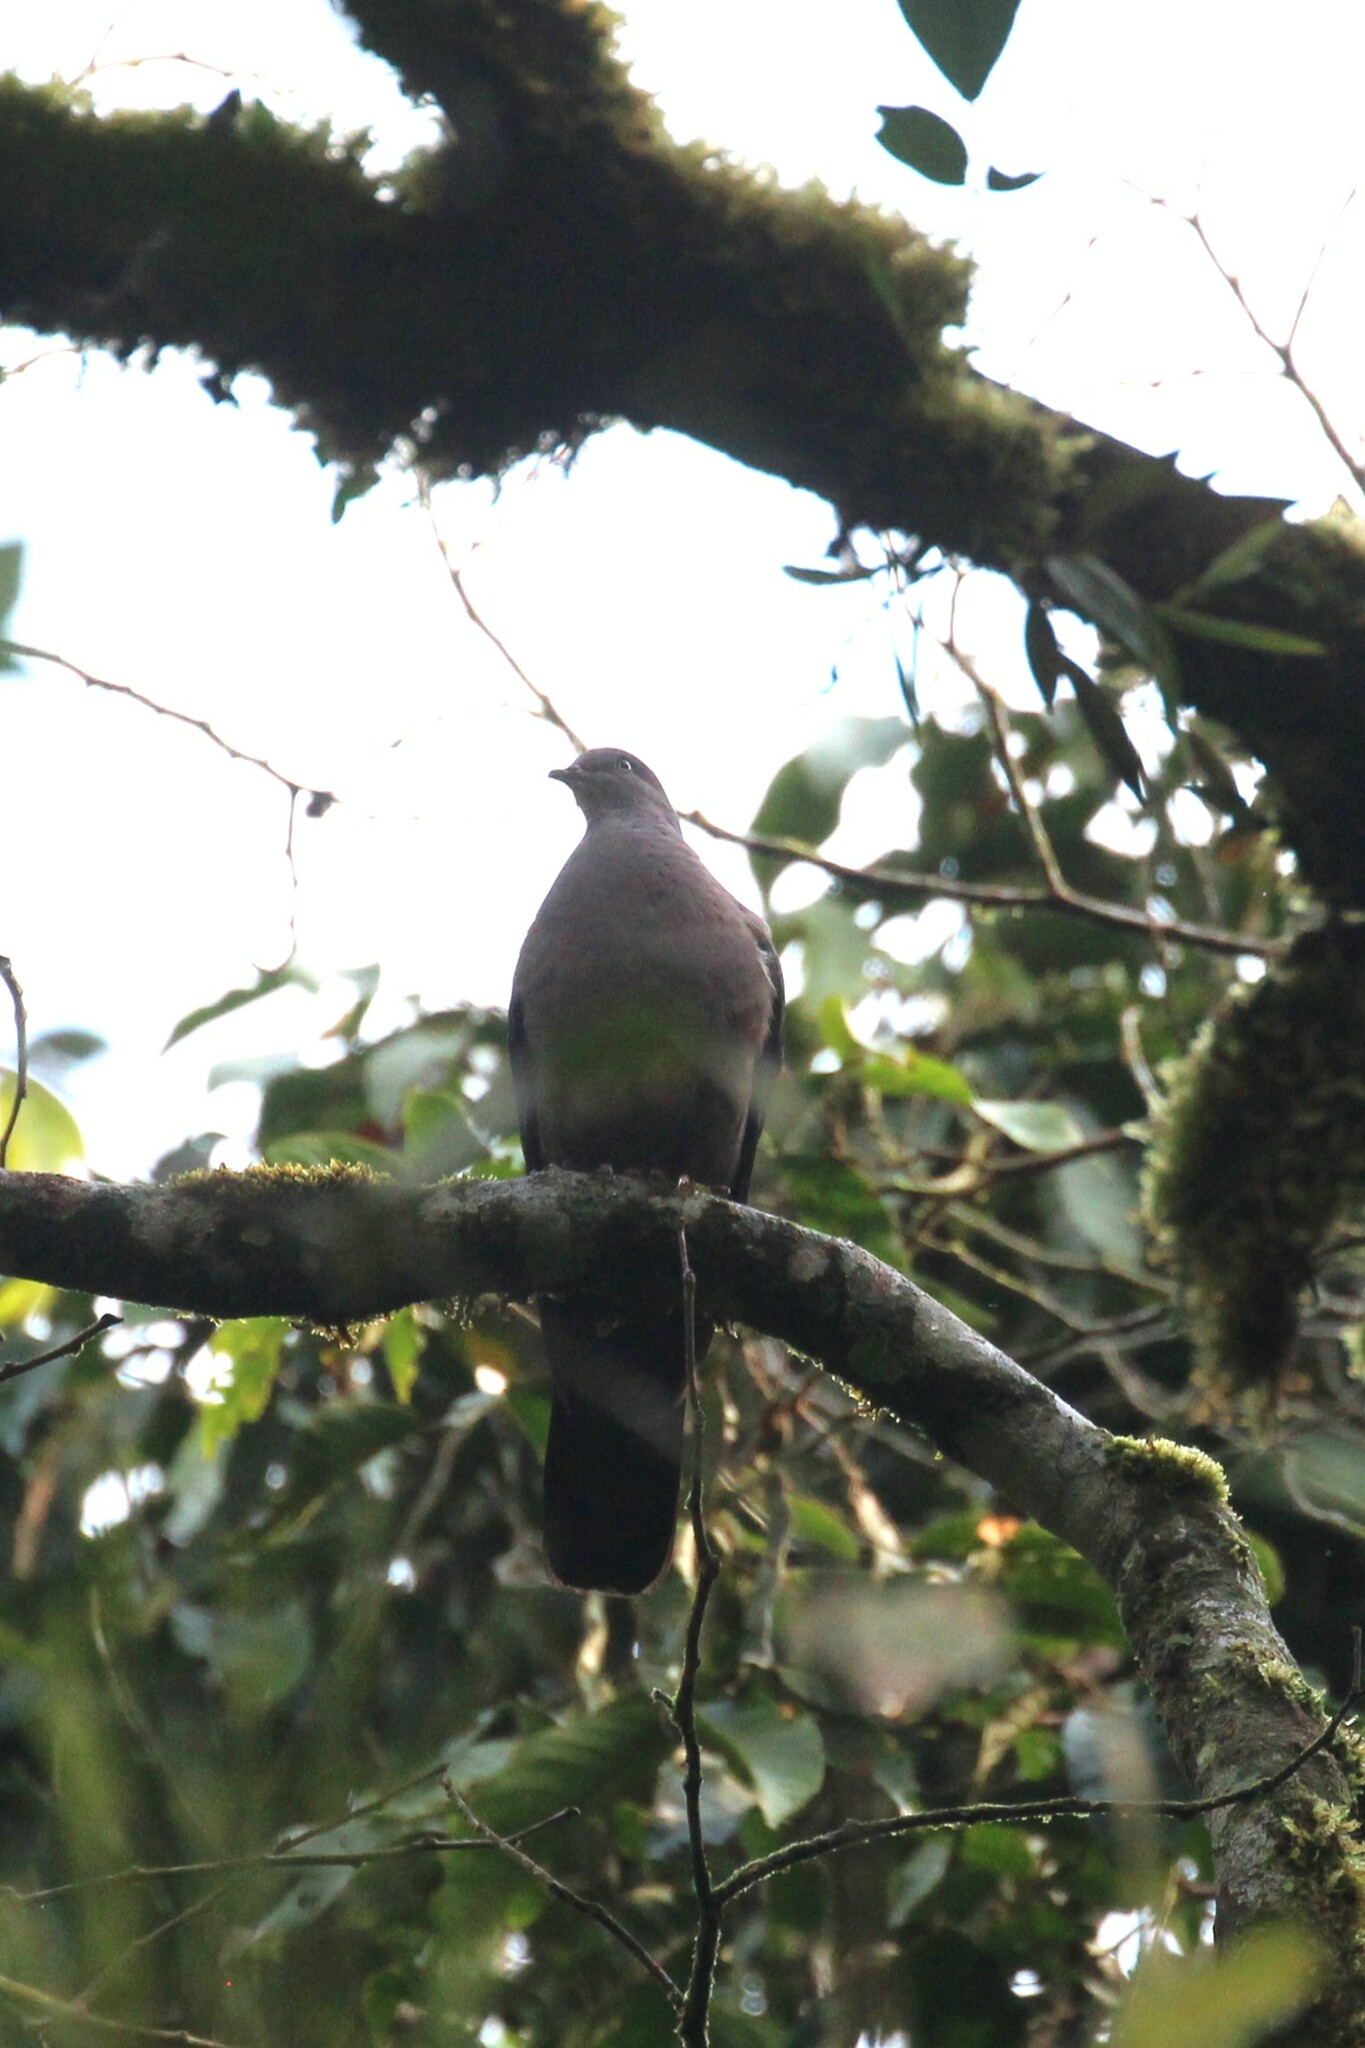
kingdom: Animalia
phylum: Chordata
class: Aves
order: Columbiformes
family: Columbidae
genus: Patagioenas
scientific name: Patagioenas plumbea
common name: Plumbeous pigeon
